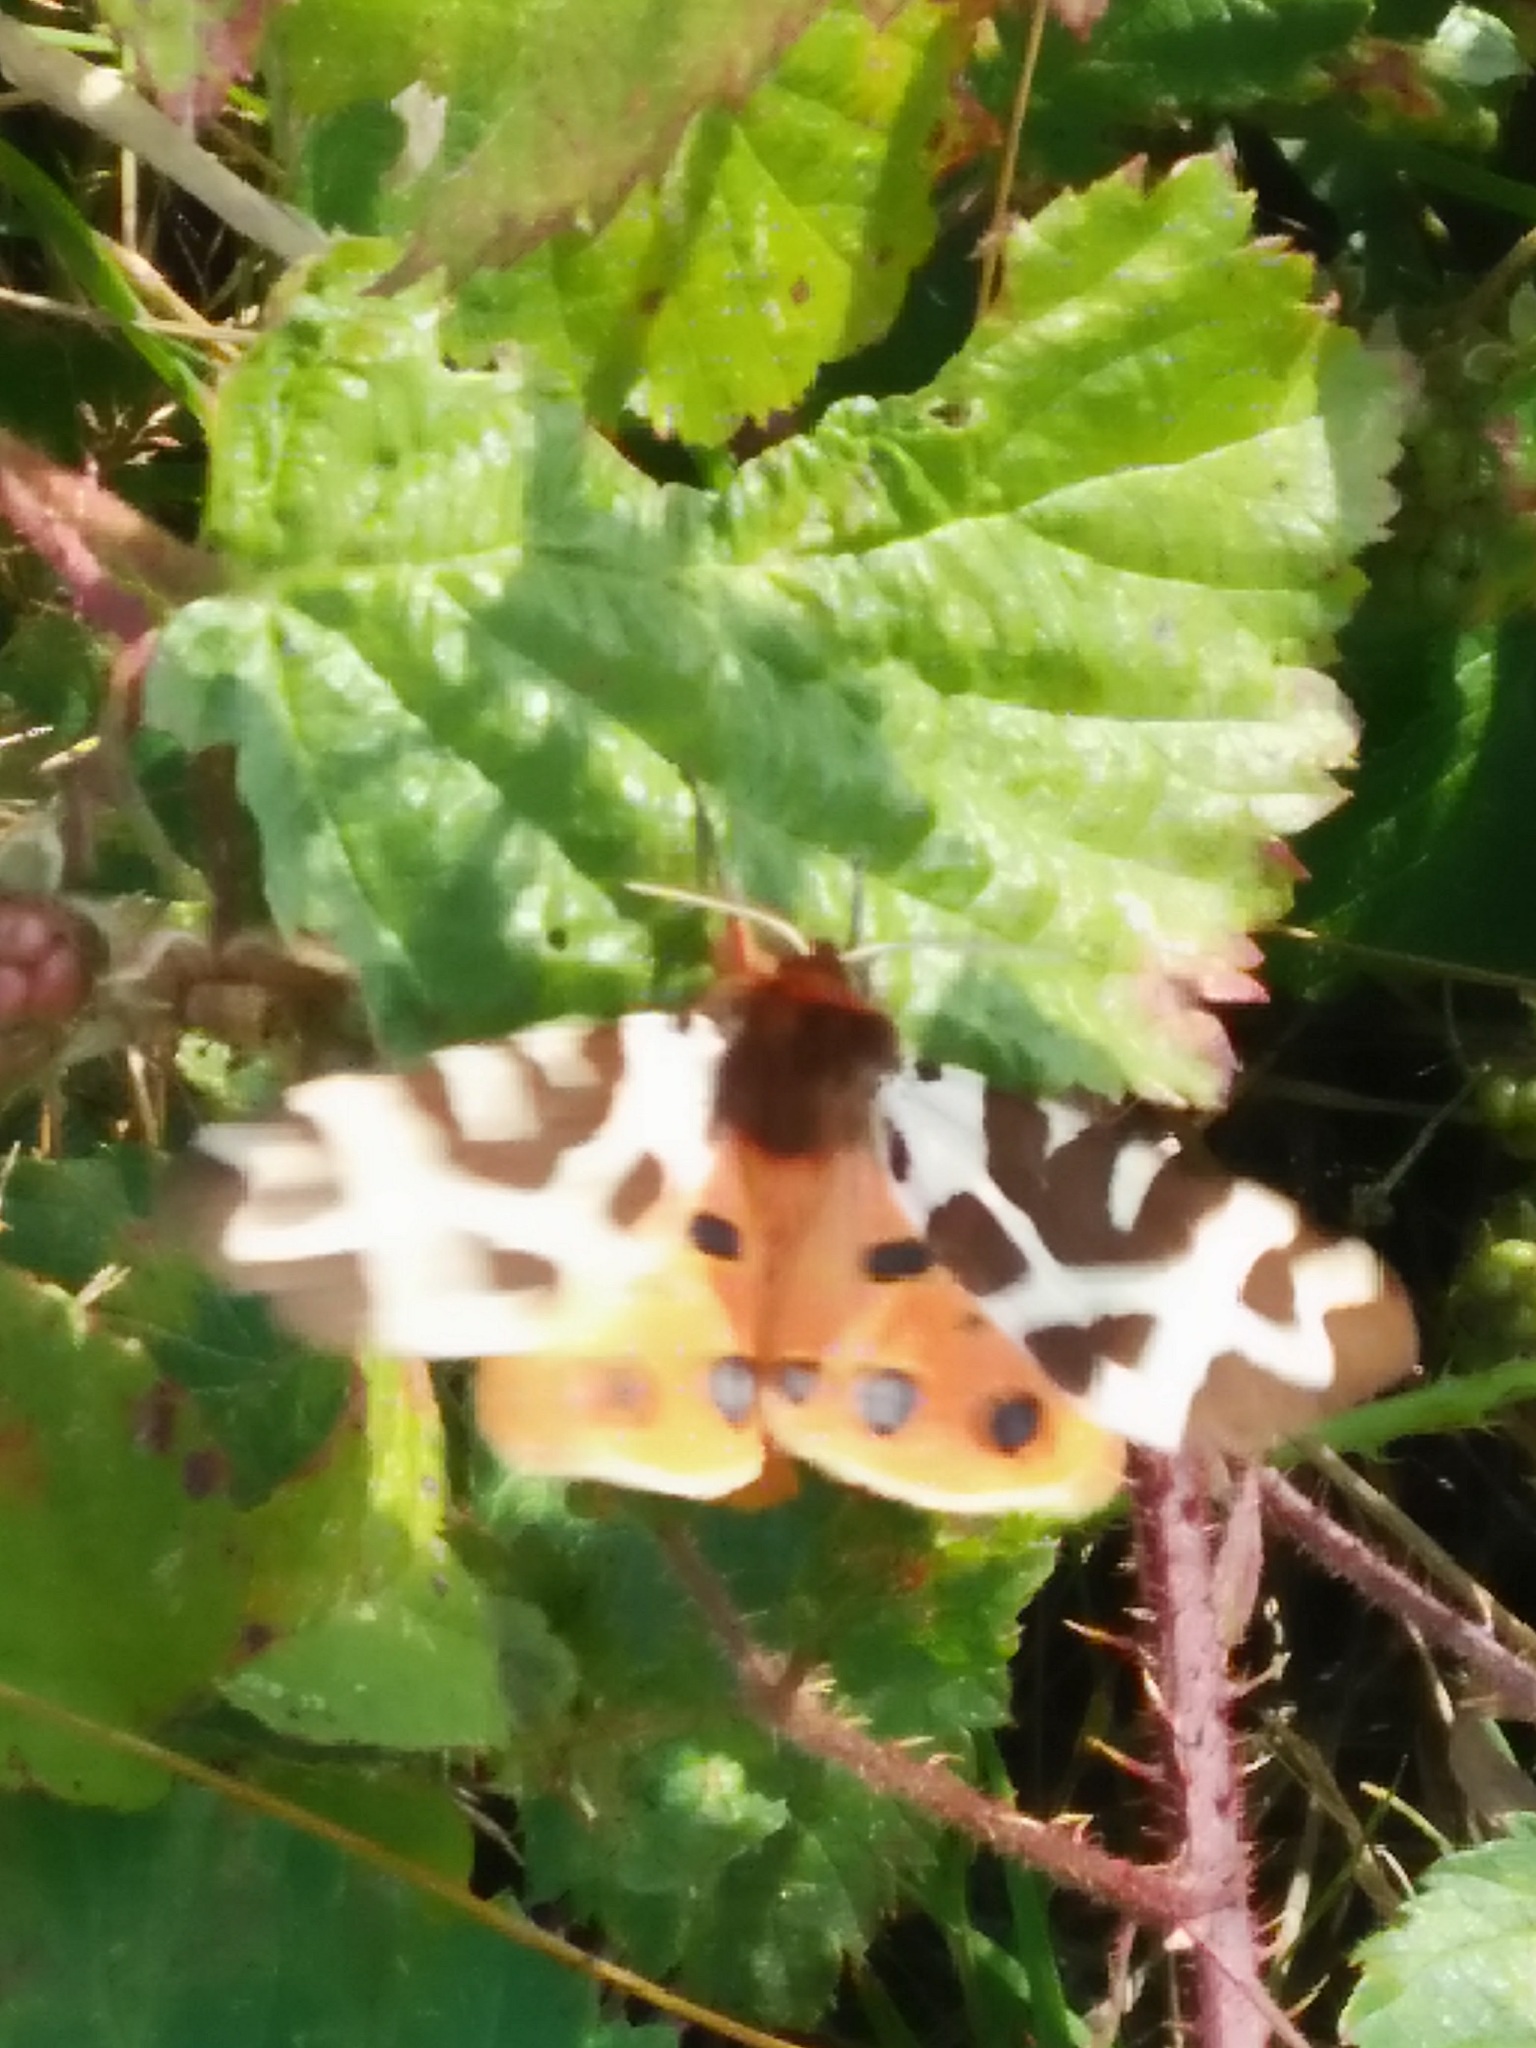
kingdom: Animalia
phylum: Arthropoda
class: Insecta
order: Lepidoptera
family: Erebidae
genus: Arctia
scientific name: Arctia caja
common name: Garden tiger
